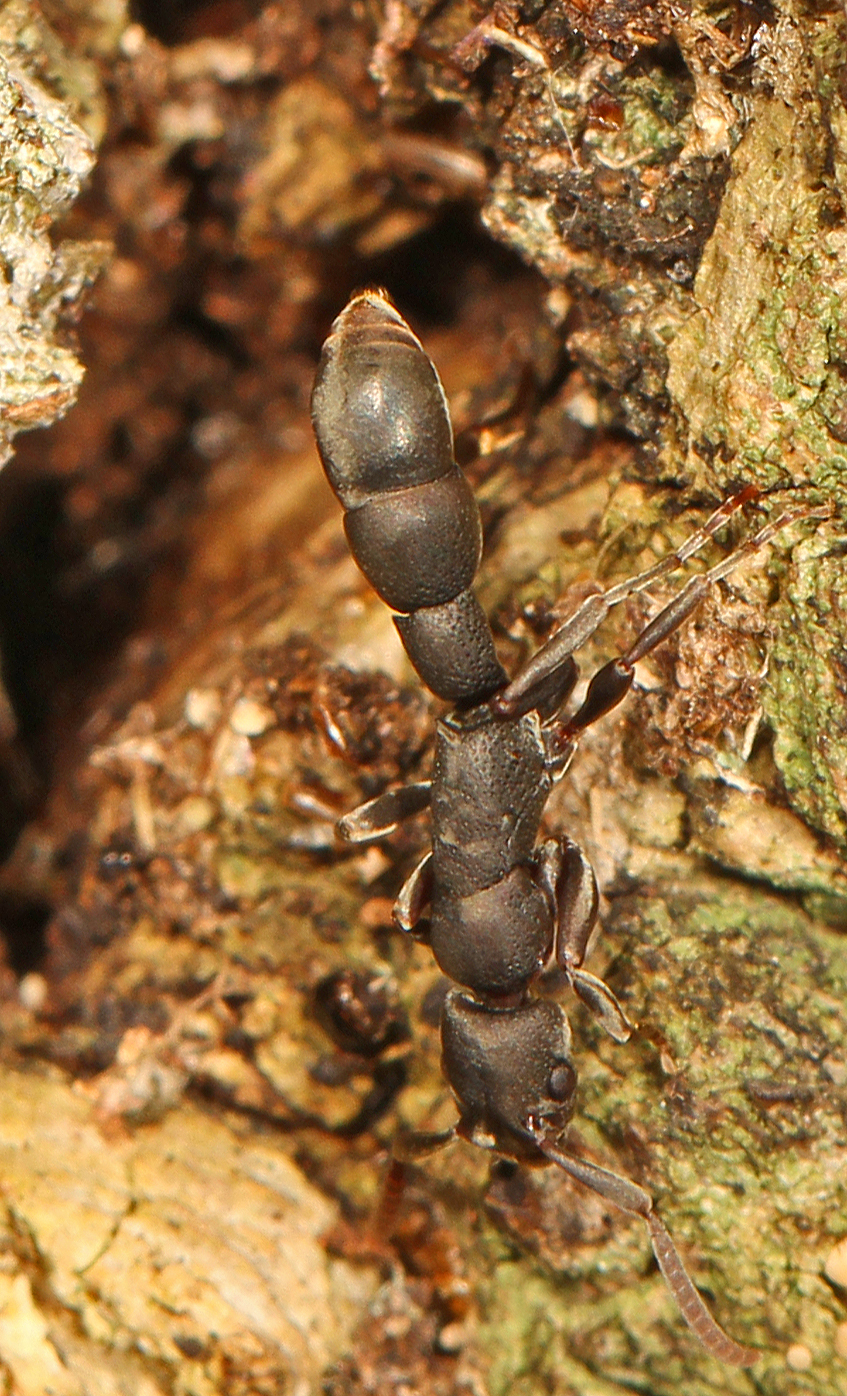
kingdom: Animalia
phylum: Arthropoda
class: Insecta
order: Hymenoptera
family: Formicidae
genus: Platythyrea
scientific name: Platythyrea punctata
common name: Ant
